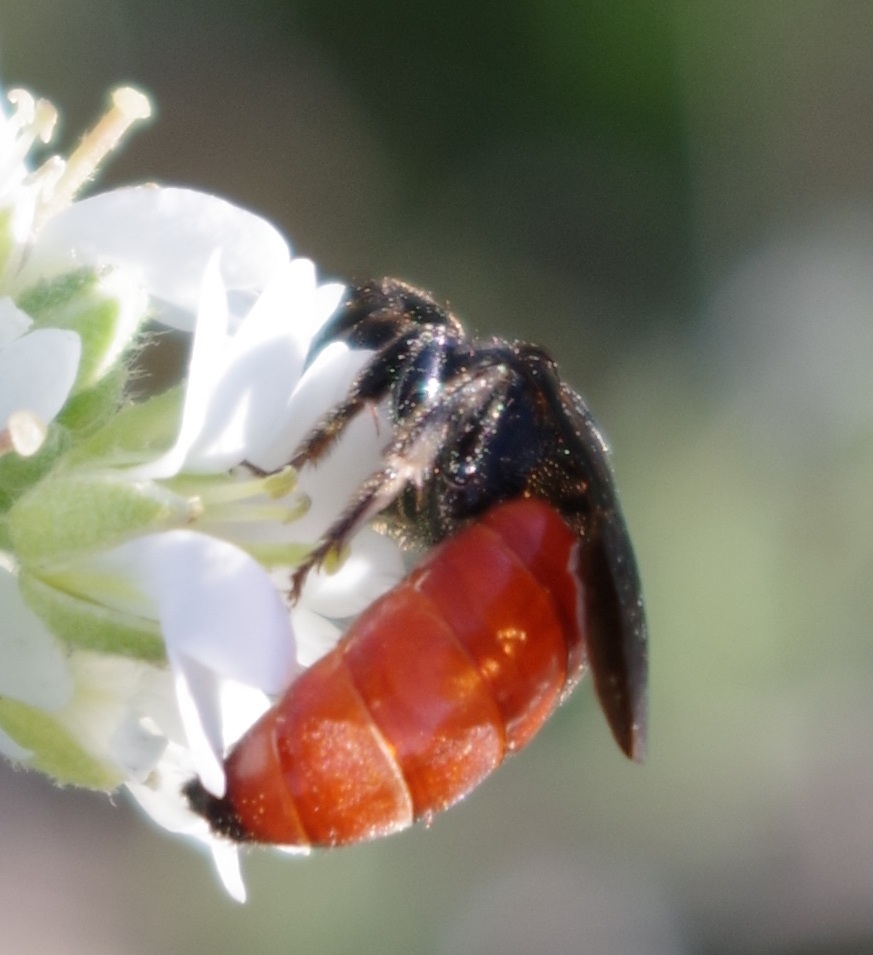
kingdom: Animalia
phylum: Arthropoda
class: Insecta
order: Hymenoptera
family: Halictidae
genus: Sphecodes
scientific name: Sphecodes albilabris
